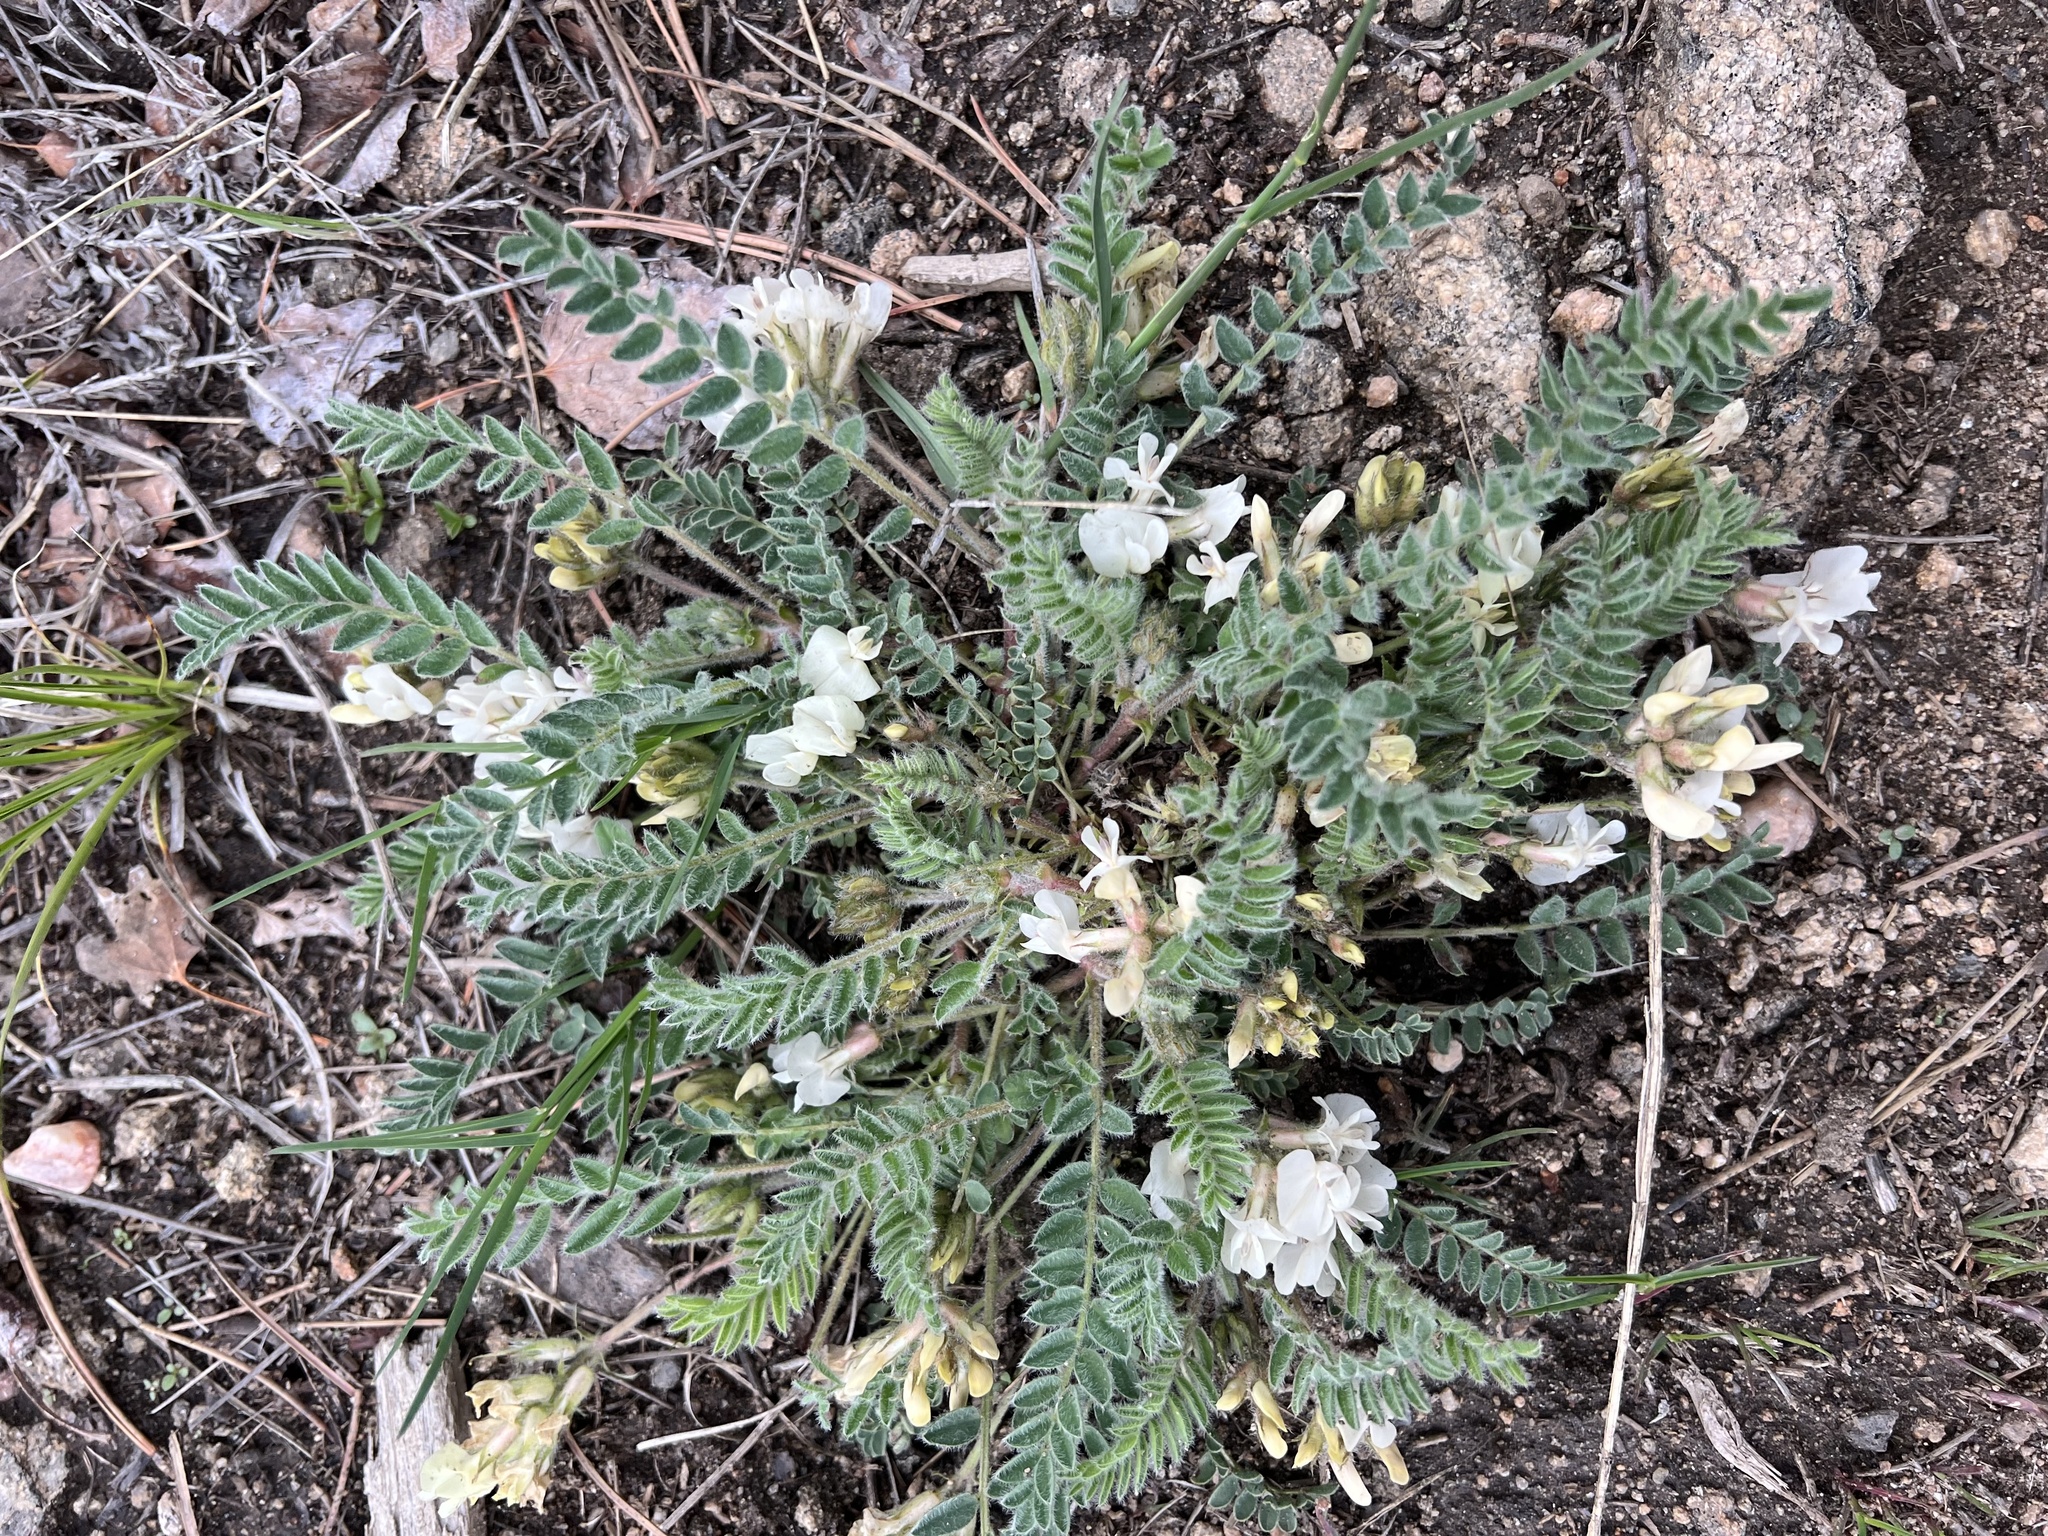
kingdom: Plantae
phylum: Tracheophyta
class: Magnoliopsida
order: Fabales
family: Fabaceae
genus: Astragalus
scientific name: Astragalus parryi
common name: Parry milk-vetch
